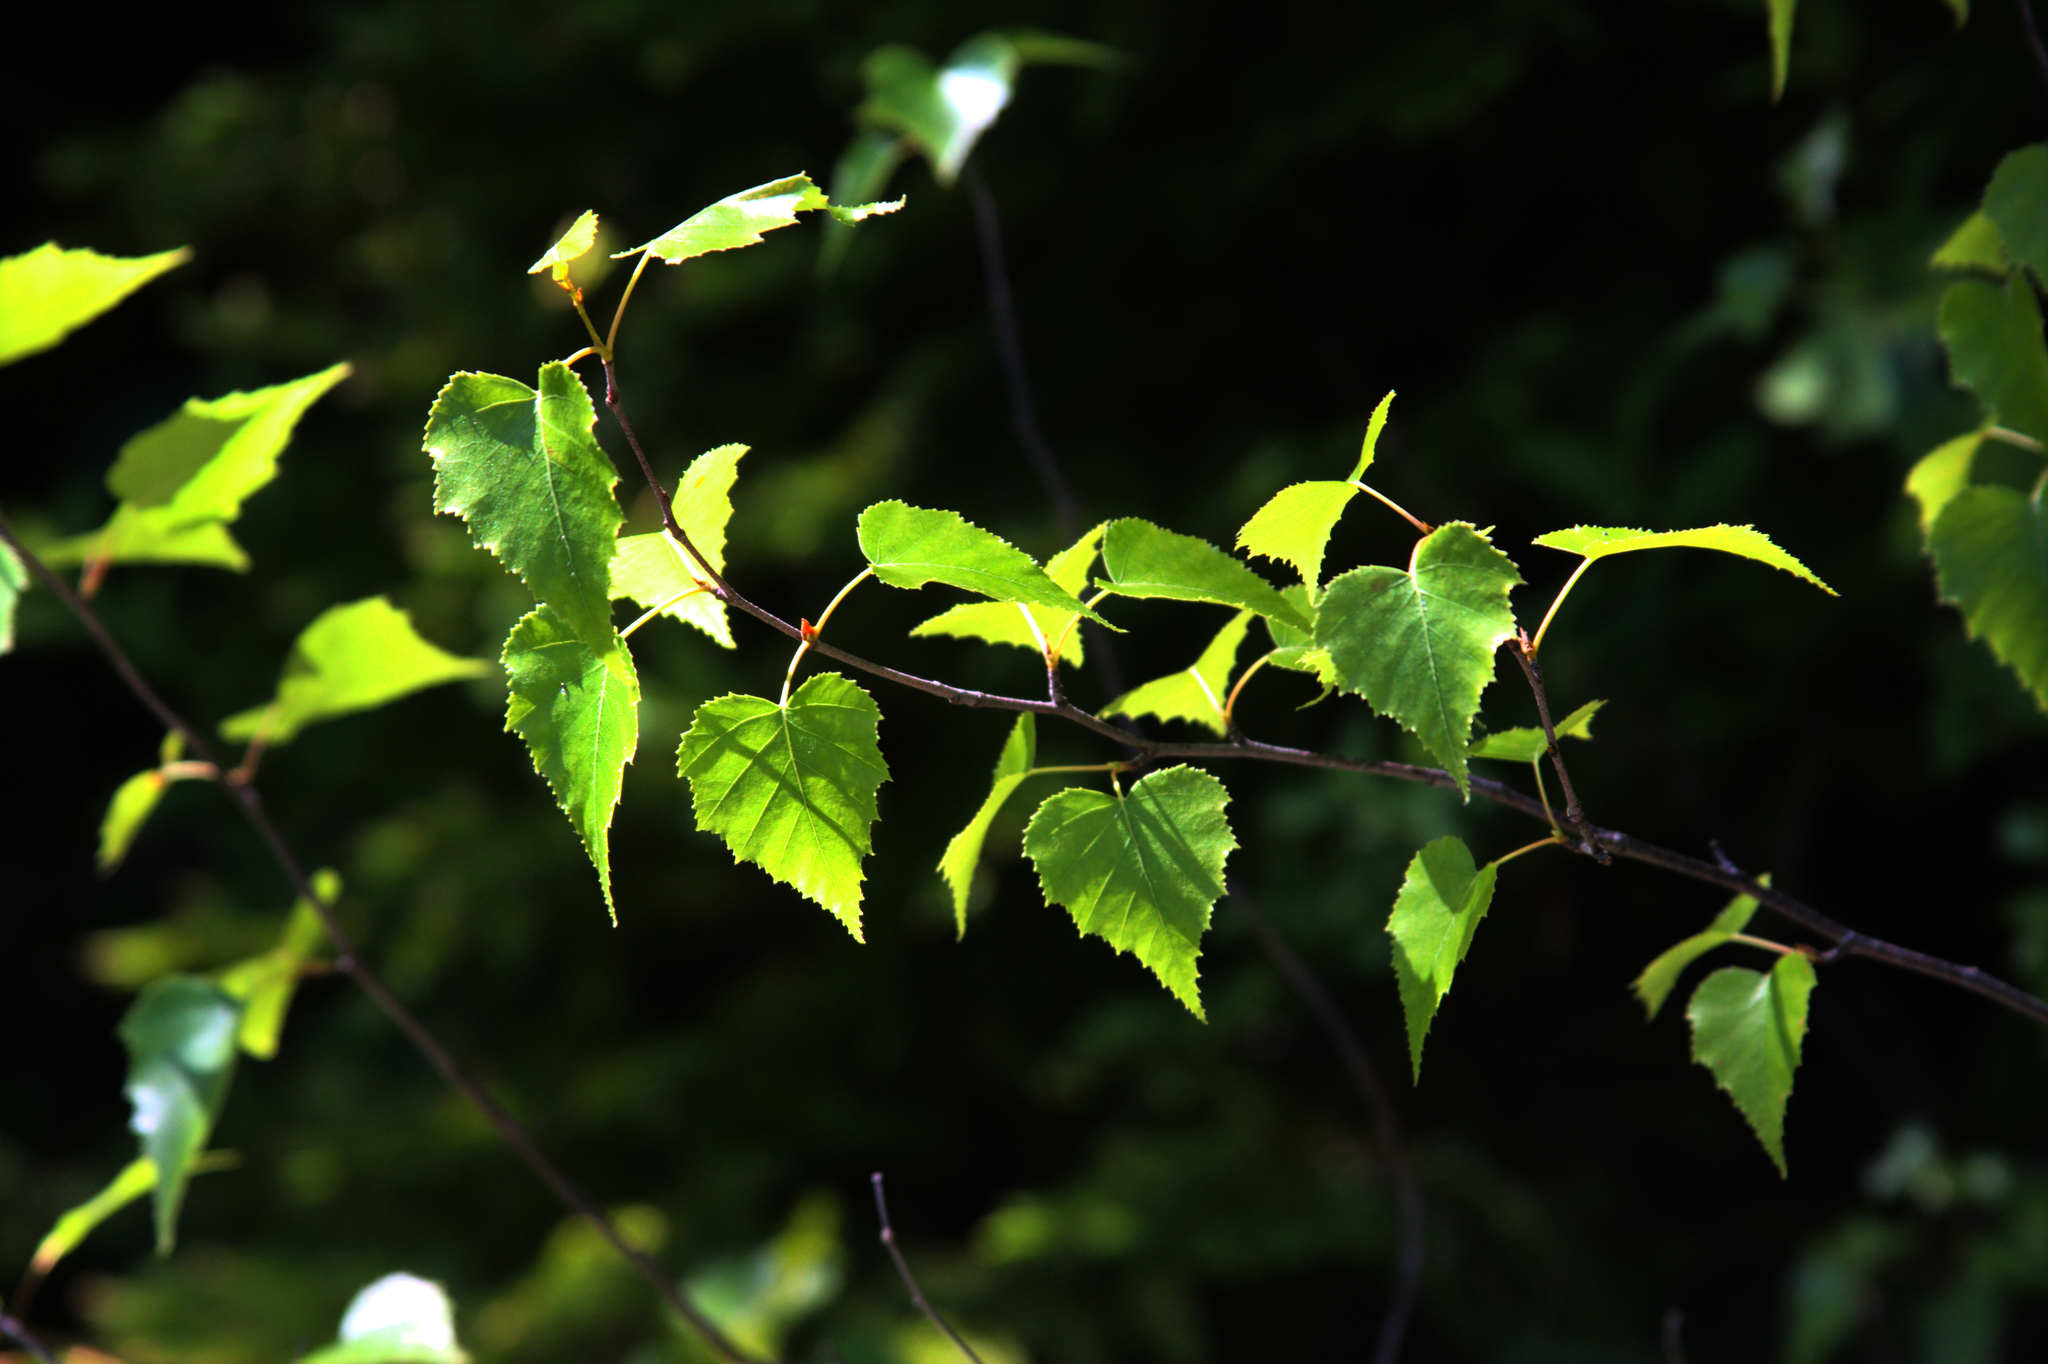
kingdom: Plantae
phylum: Tracheophyta
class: Magnoliopsida
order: Fagales
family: Betulaceae
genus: Betula
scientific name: Betula populifolia
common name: Fire birch
